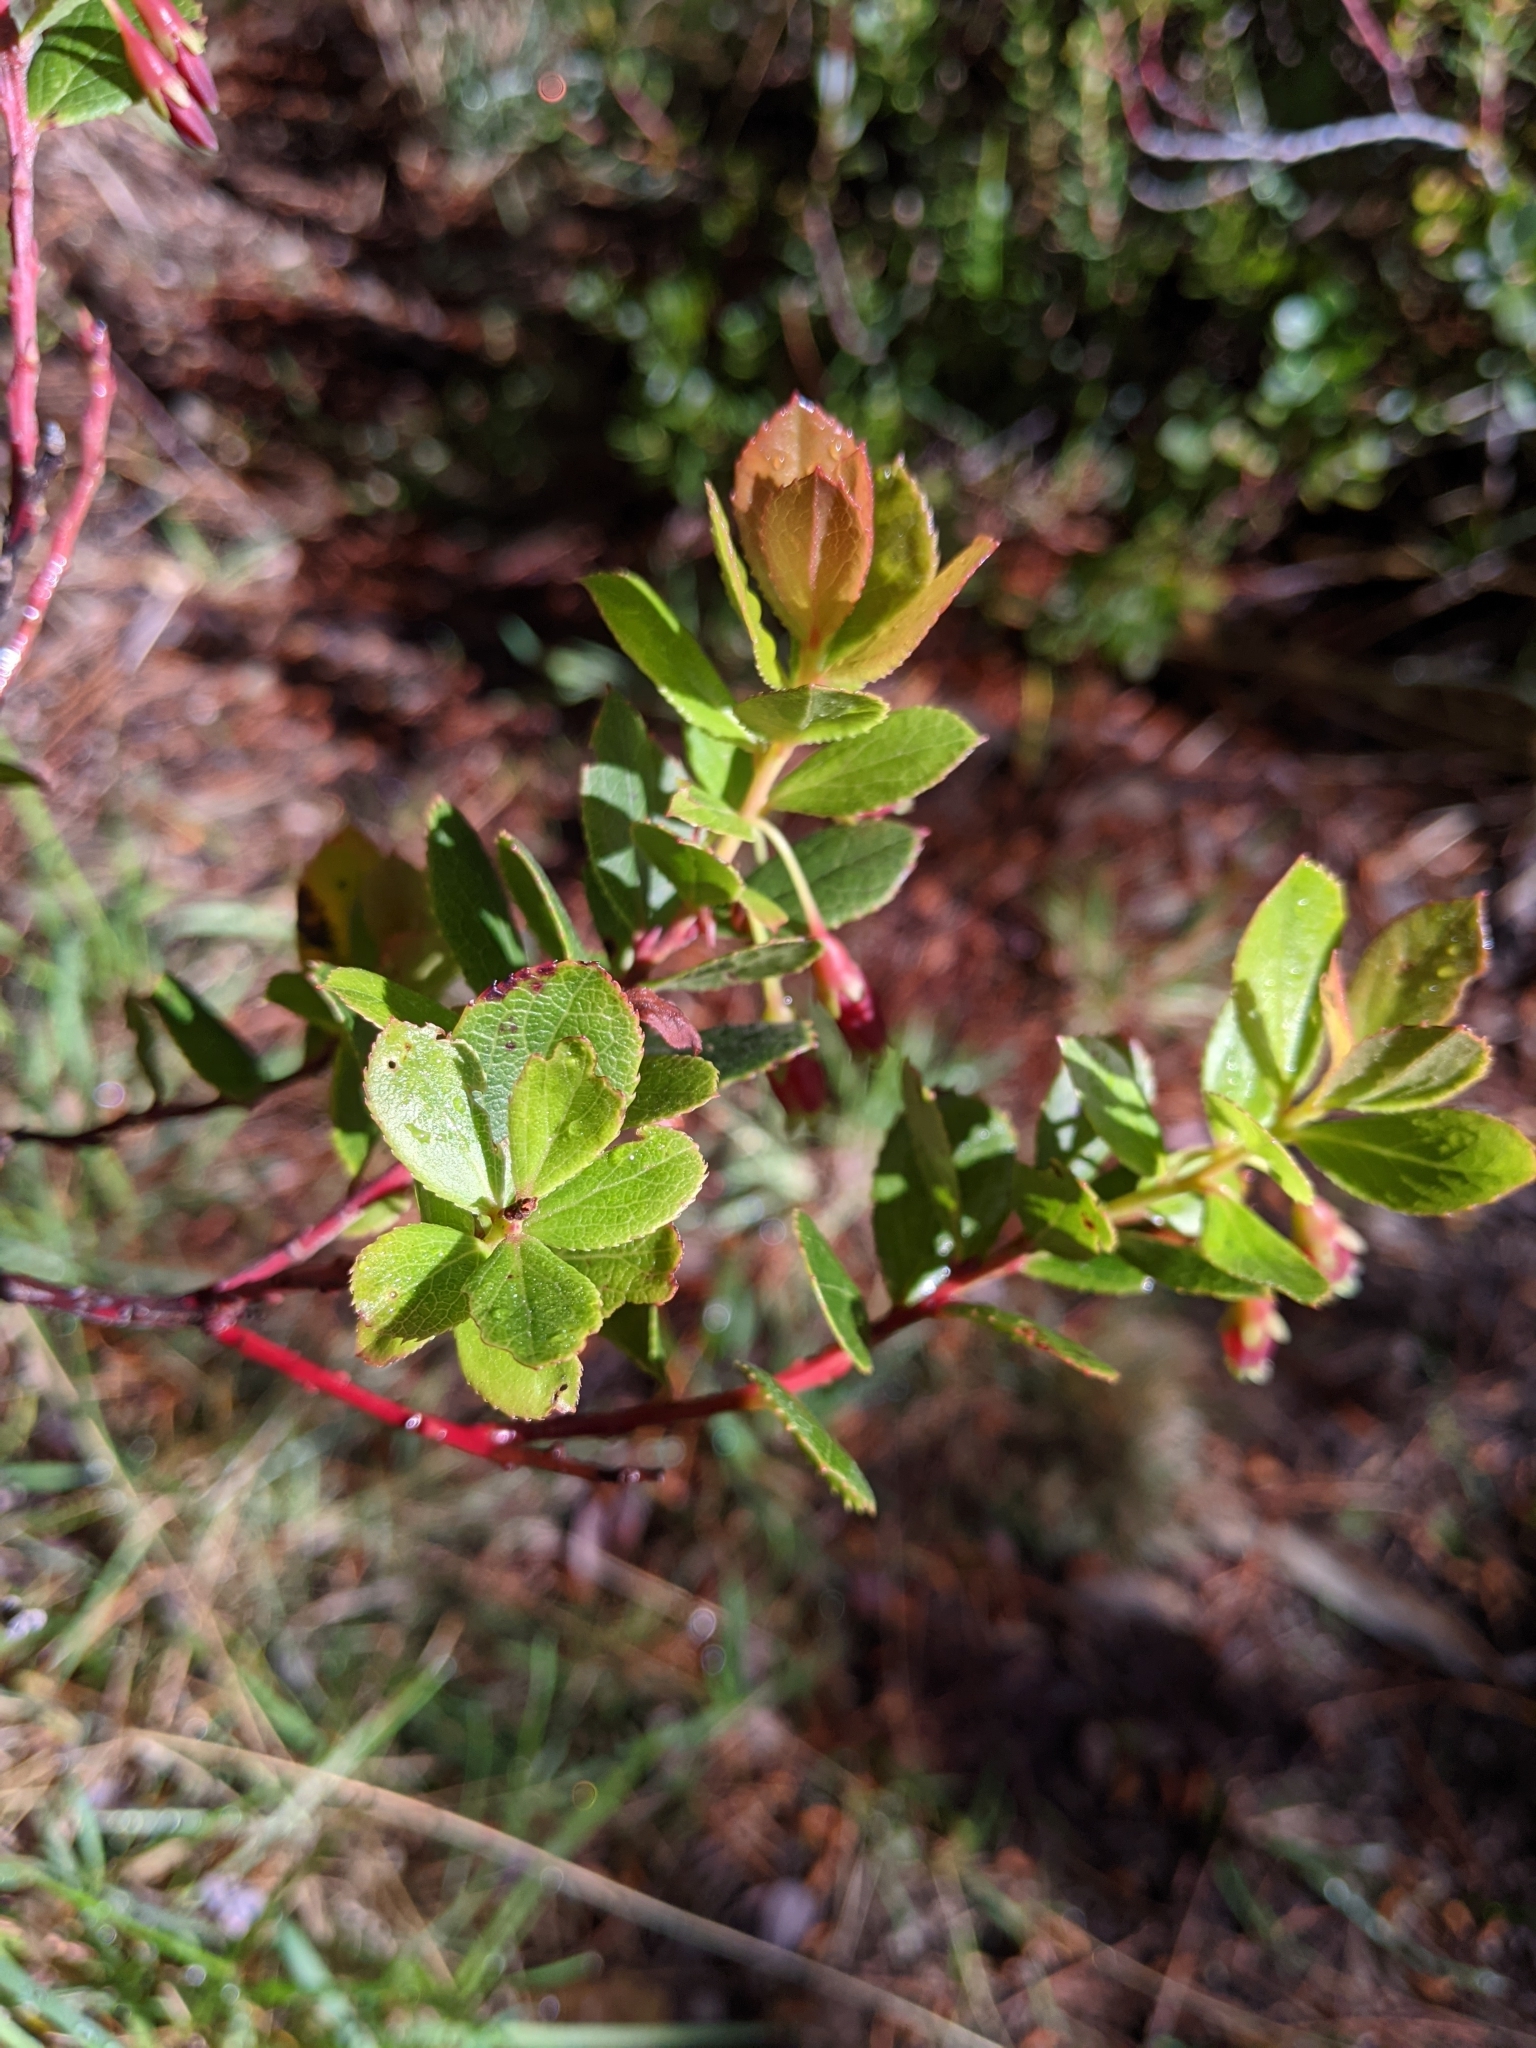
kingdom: Plantae
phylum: Tracheophyta
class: Magnoliopsida
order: Ericales
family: Ericaceae
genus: Vaccinium
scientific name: Vaccinium reticulatum
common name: Ohelo
